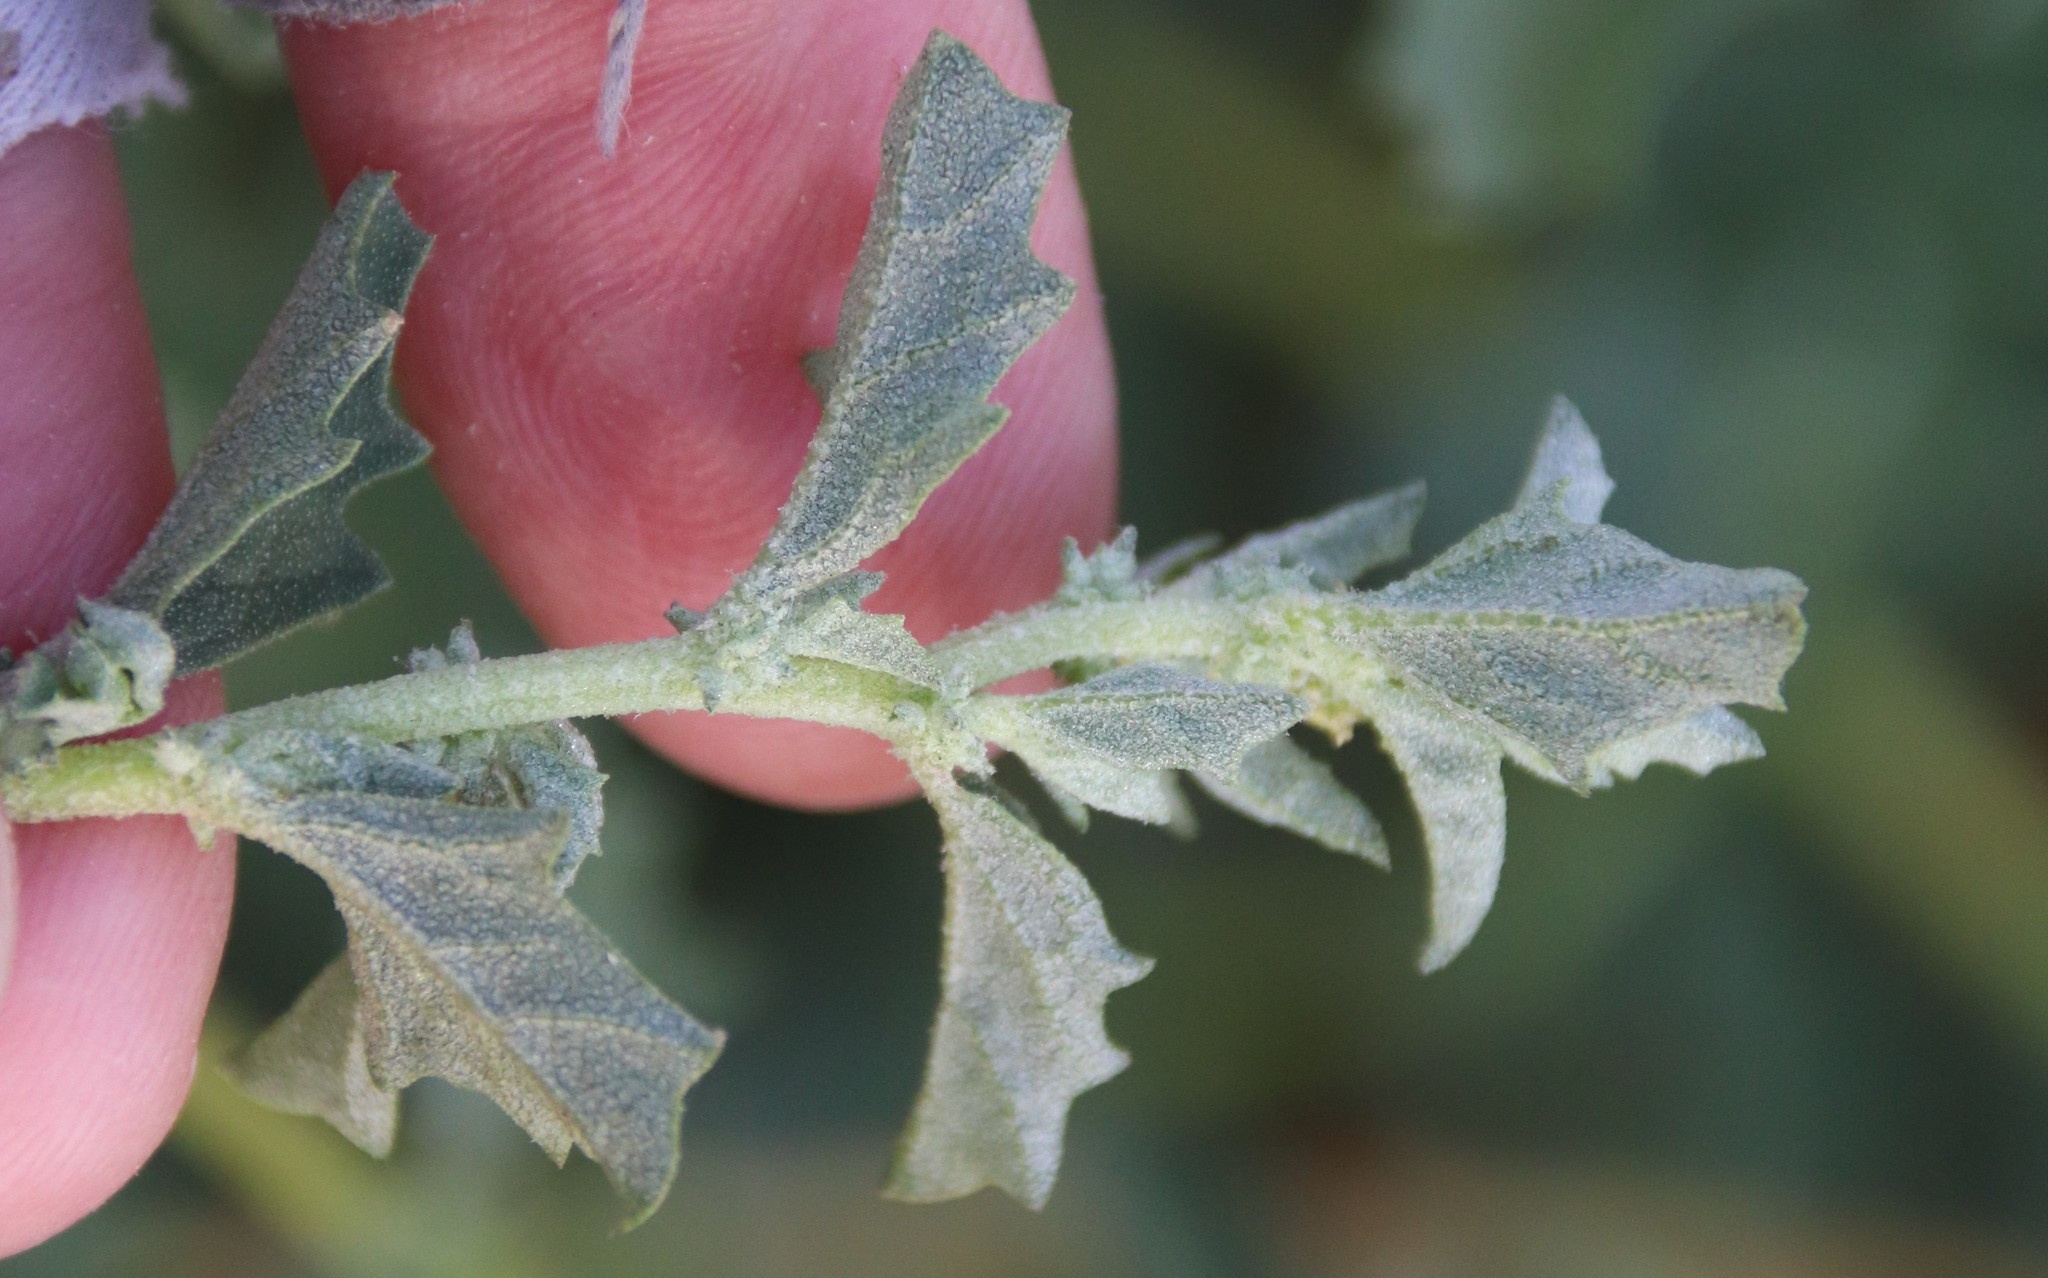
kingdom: Plantae
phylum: Tracheophyta
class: Magnoliopsida
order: Caryophyllales
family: Amaranthaceae
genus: Atriplex
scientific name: Atriplex suberecta
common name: Australian orache
